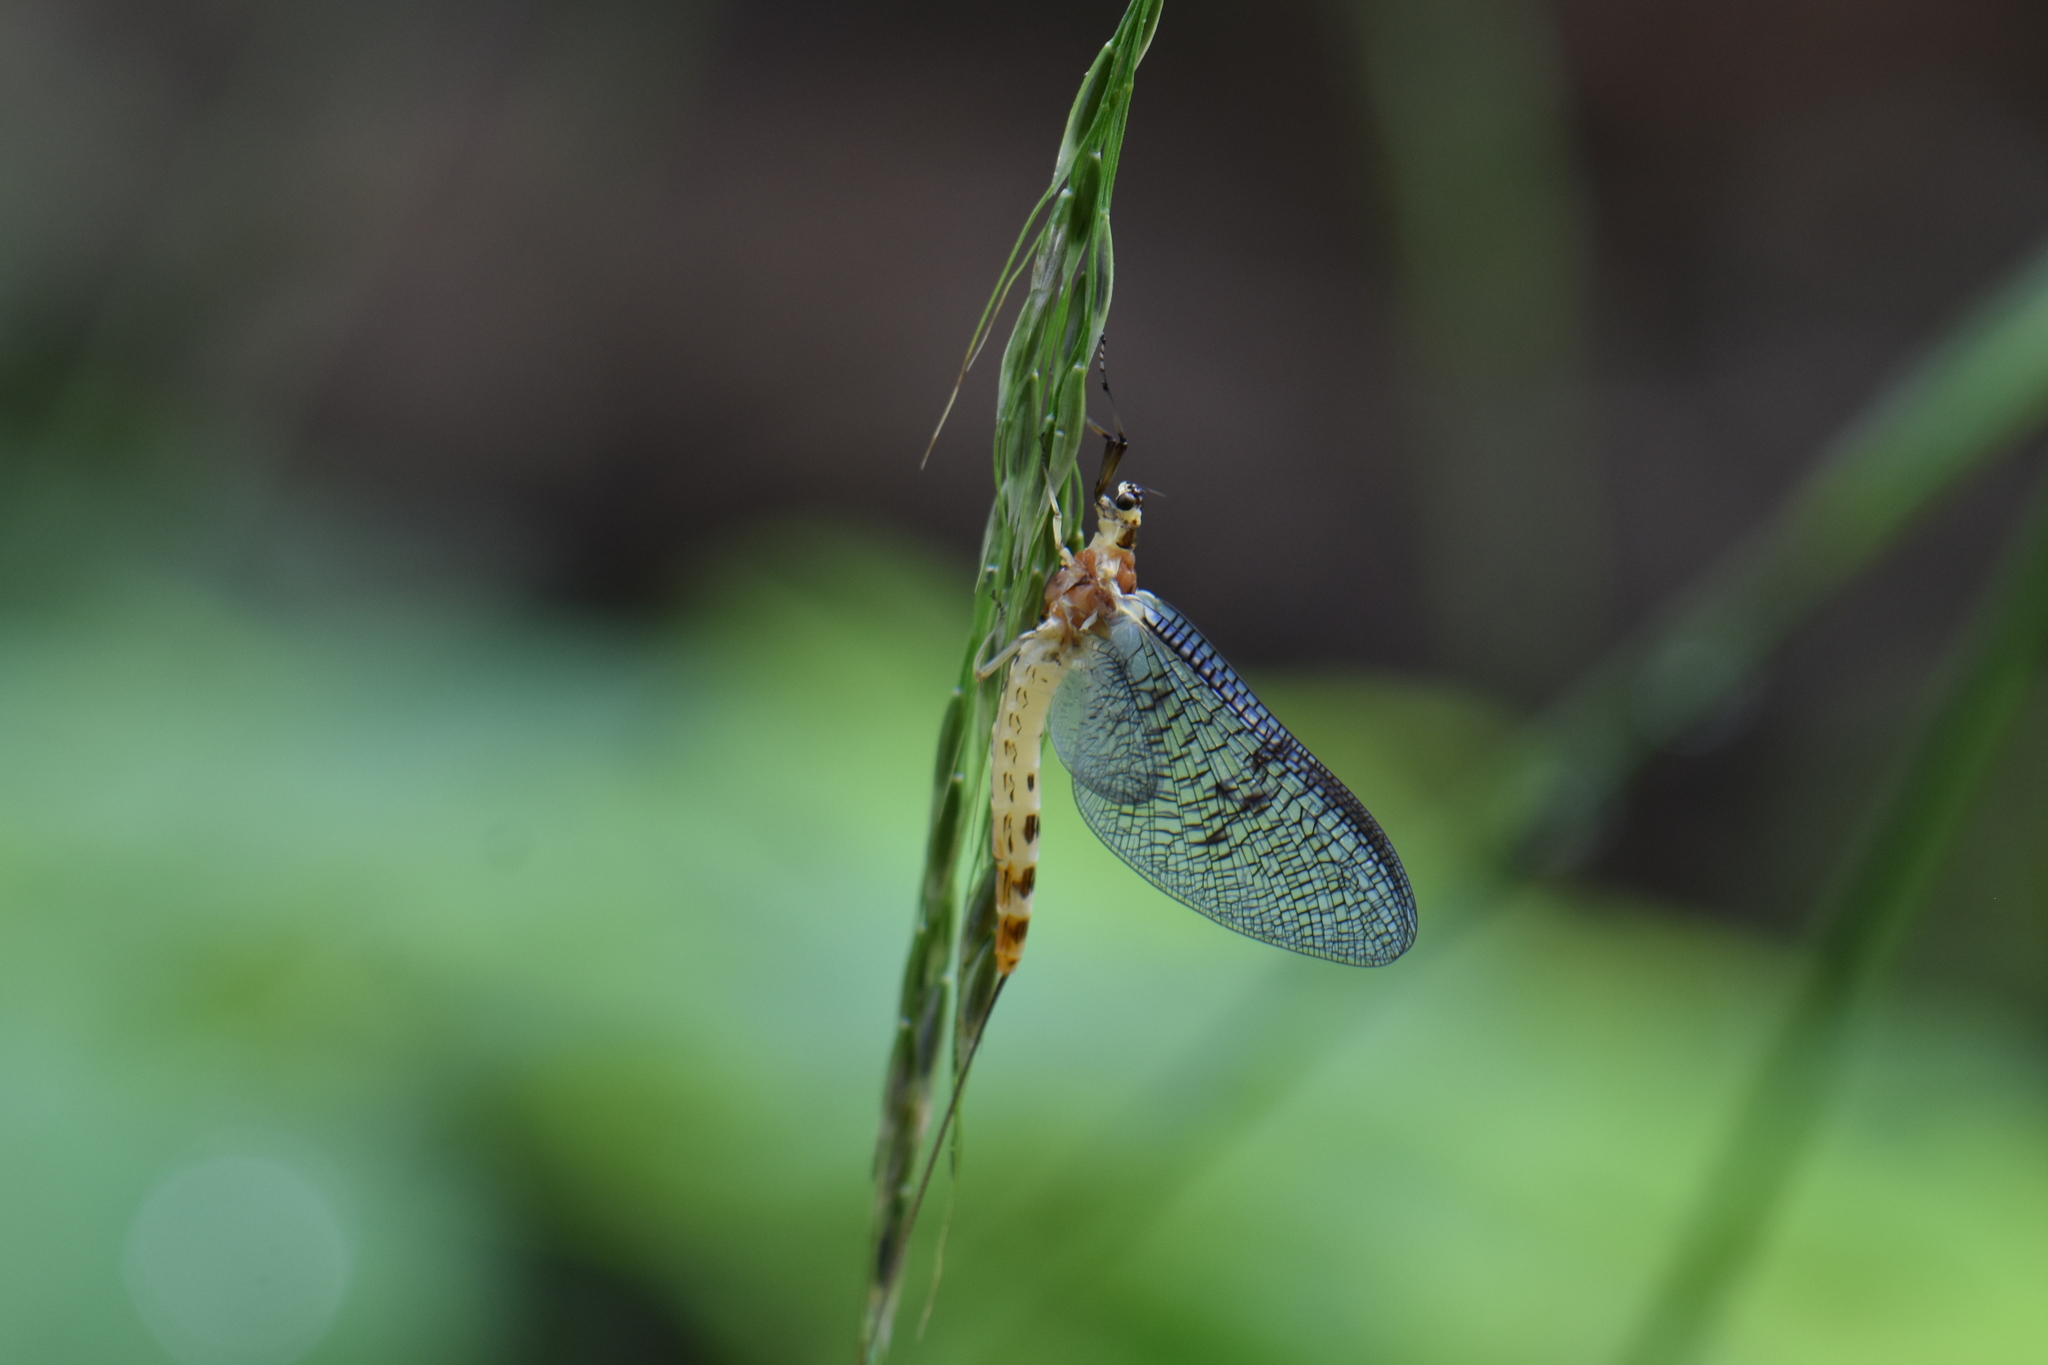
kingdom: Animalia
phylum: Arthropoda
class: Insecta
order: Ephemeroptera
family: Ephemeridae
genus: Ephemera
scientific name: Ephemera danica
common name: Green dun
